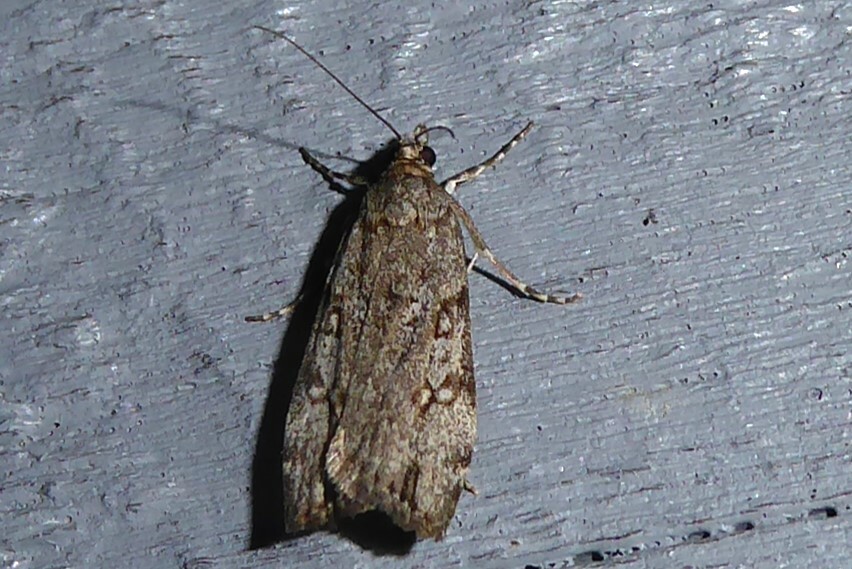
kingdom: Animalia
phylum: Arthropoda
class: Insecta
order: Lepidoptera
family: Crambidae
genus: Eudonia
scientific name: Eudonia cymatias
